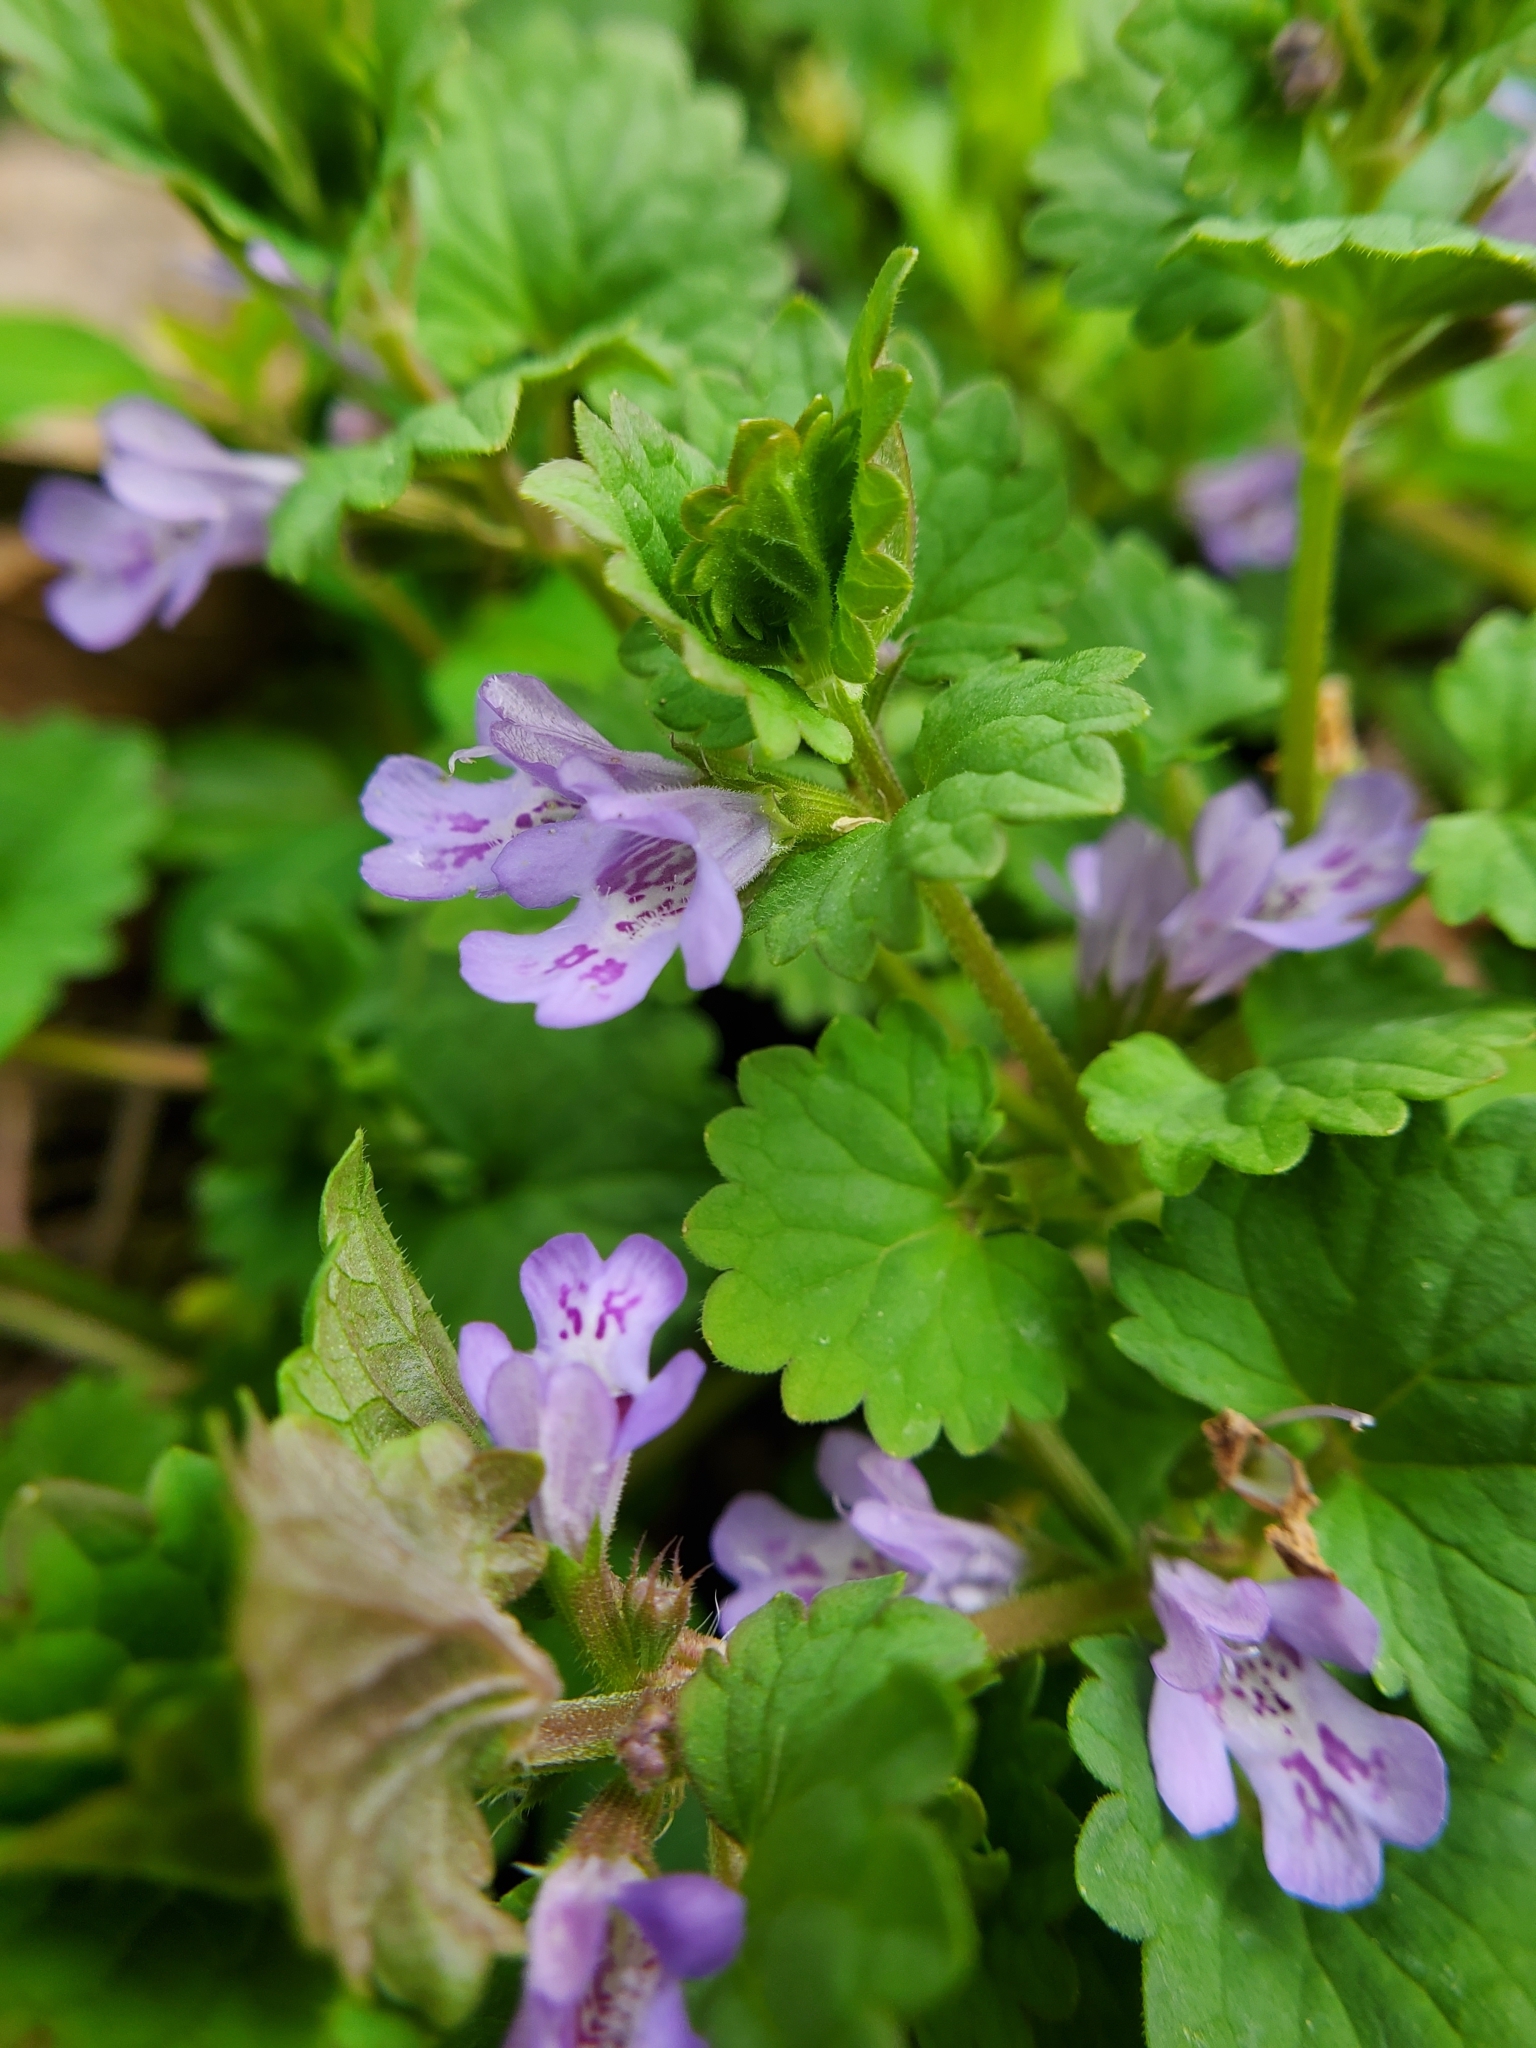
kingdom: Plantae
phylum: Tracheophyta
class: Magnoliopsida
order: Lamiales
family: Lamiaceae
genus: Glechoma
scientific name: Glechoma hederacea
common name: Ground ivy
